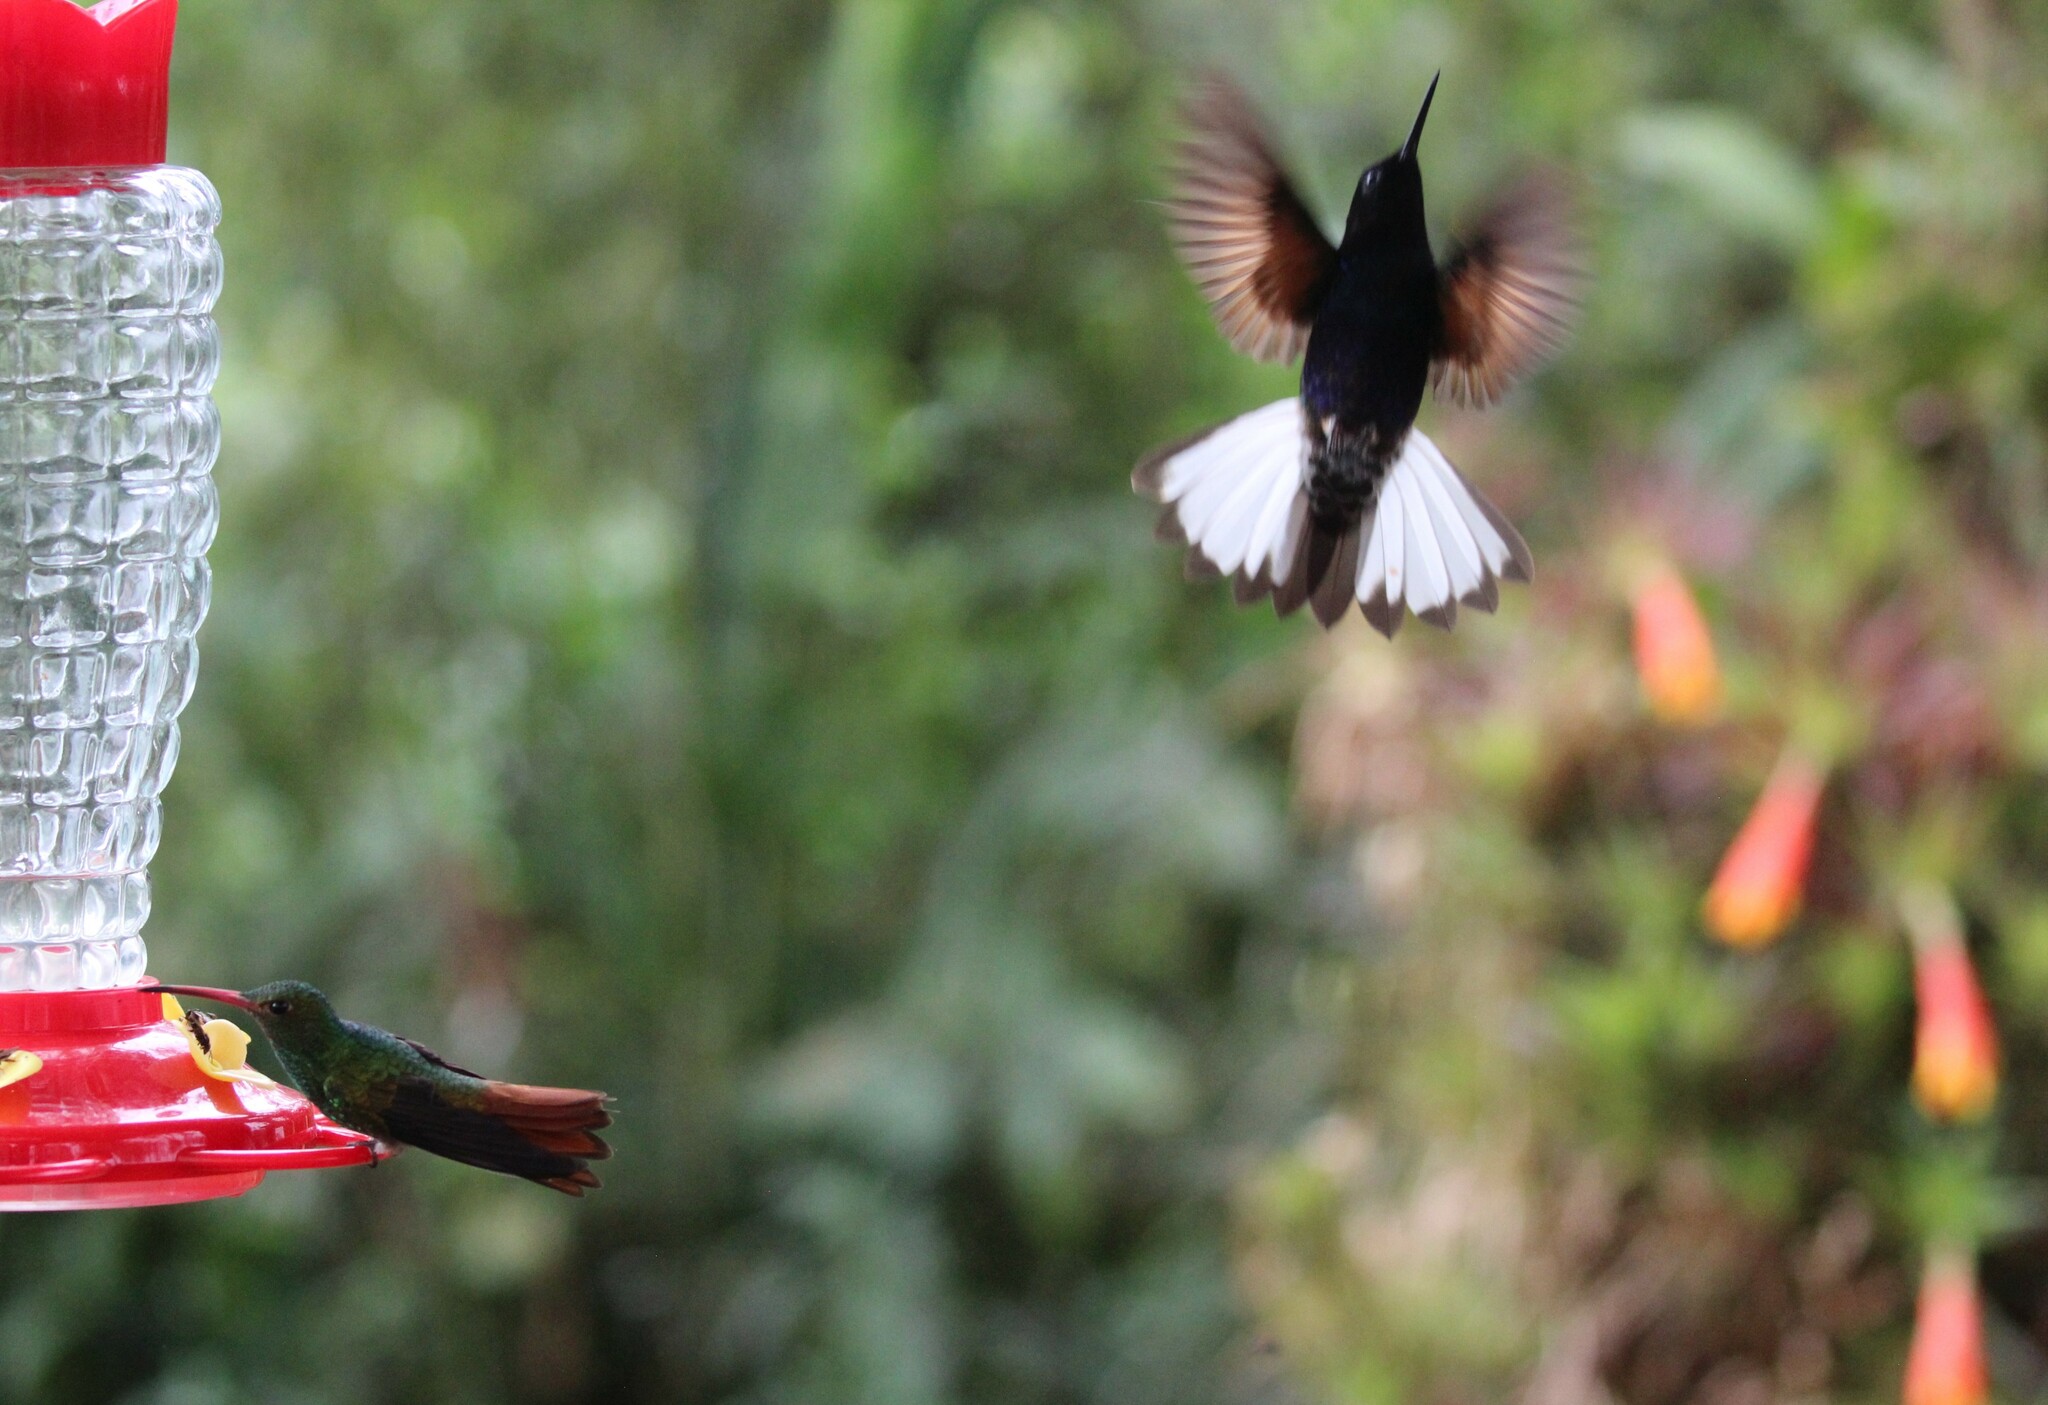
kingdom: Animalia
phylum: Chordata
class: Aves
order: Apodiformes
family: Trochilidae
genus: Boissonneaua
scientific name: Boissonneaua jardini
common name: Velvet-purple coronet
